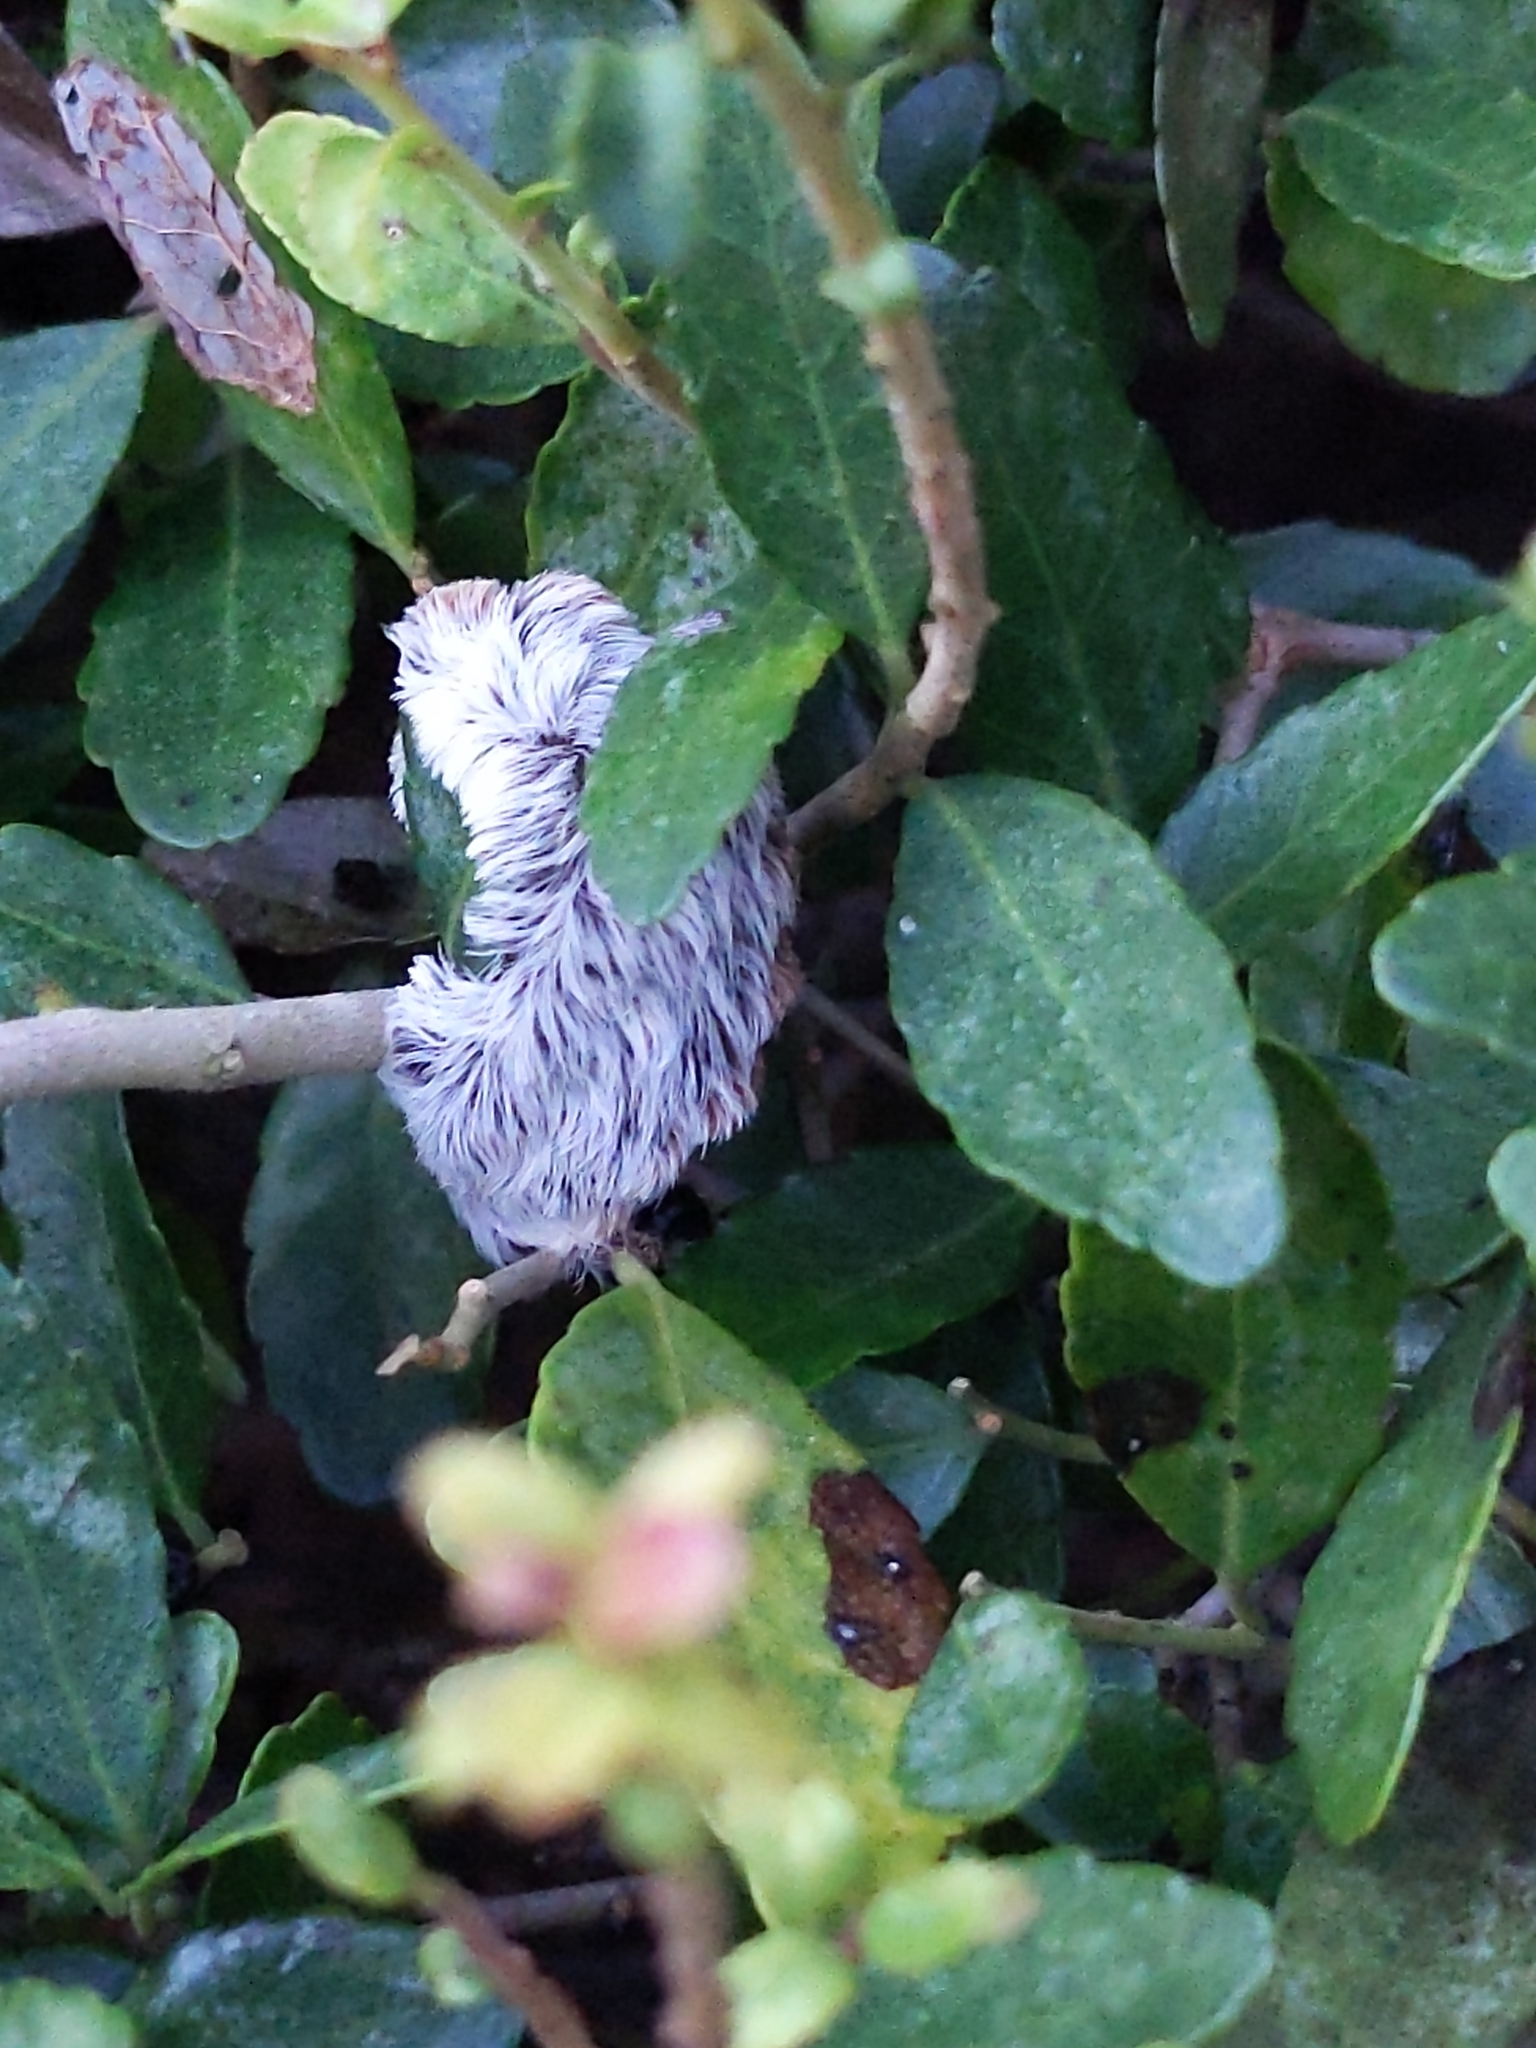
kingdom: Animalia
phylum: Arthropoda
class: Insecta
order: Lepidoptera
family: Megalopygidae
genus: Megalopyge
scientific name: Megalopyge opercularis
